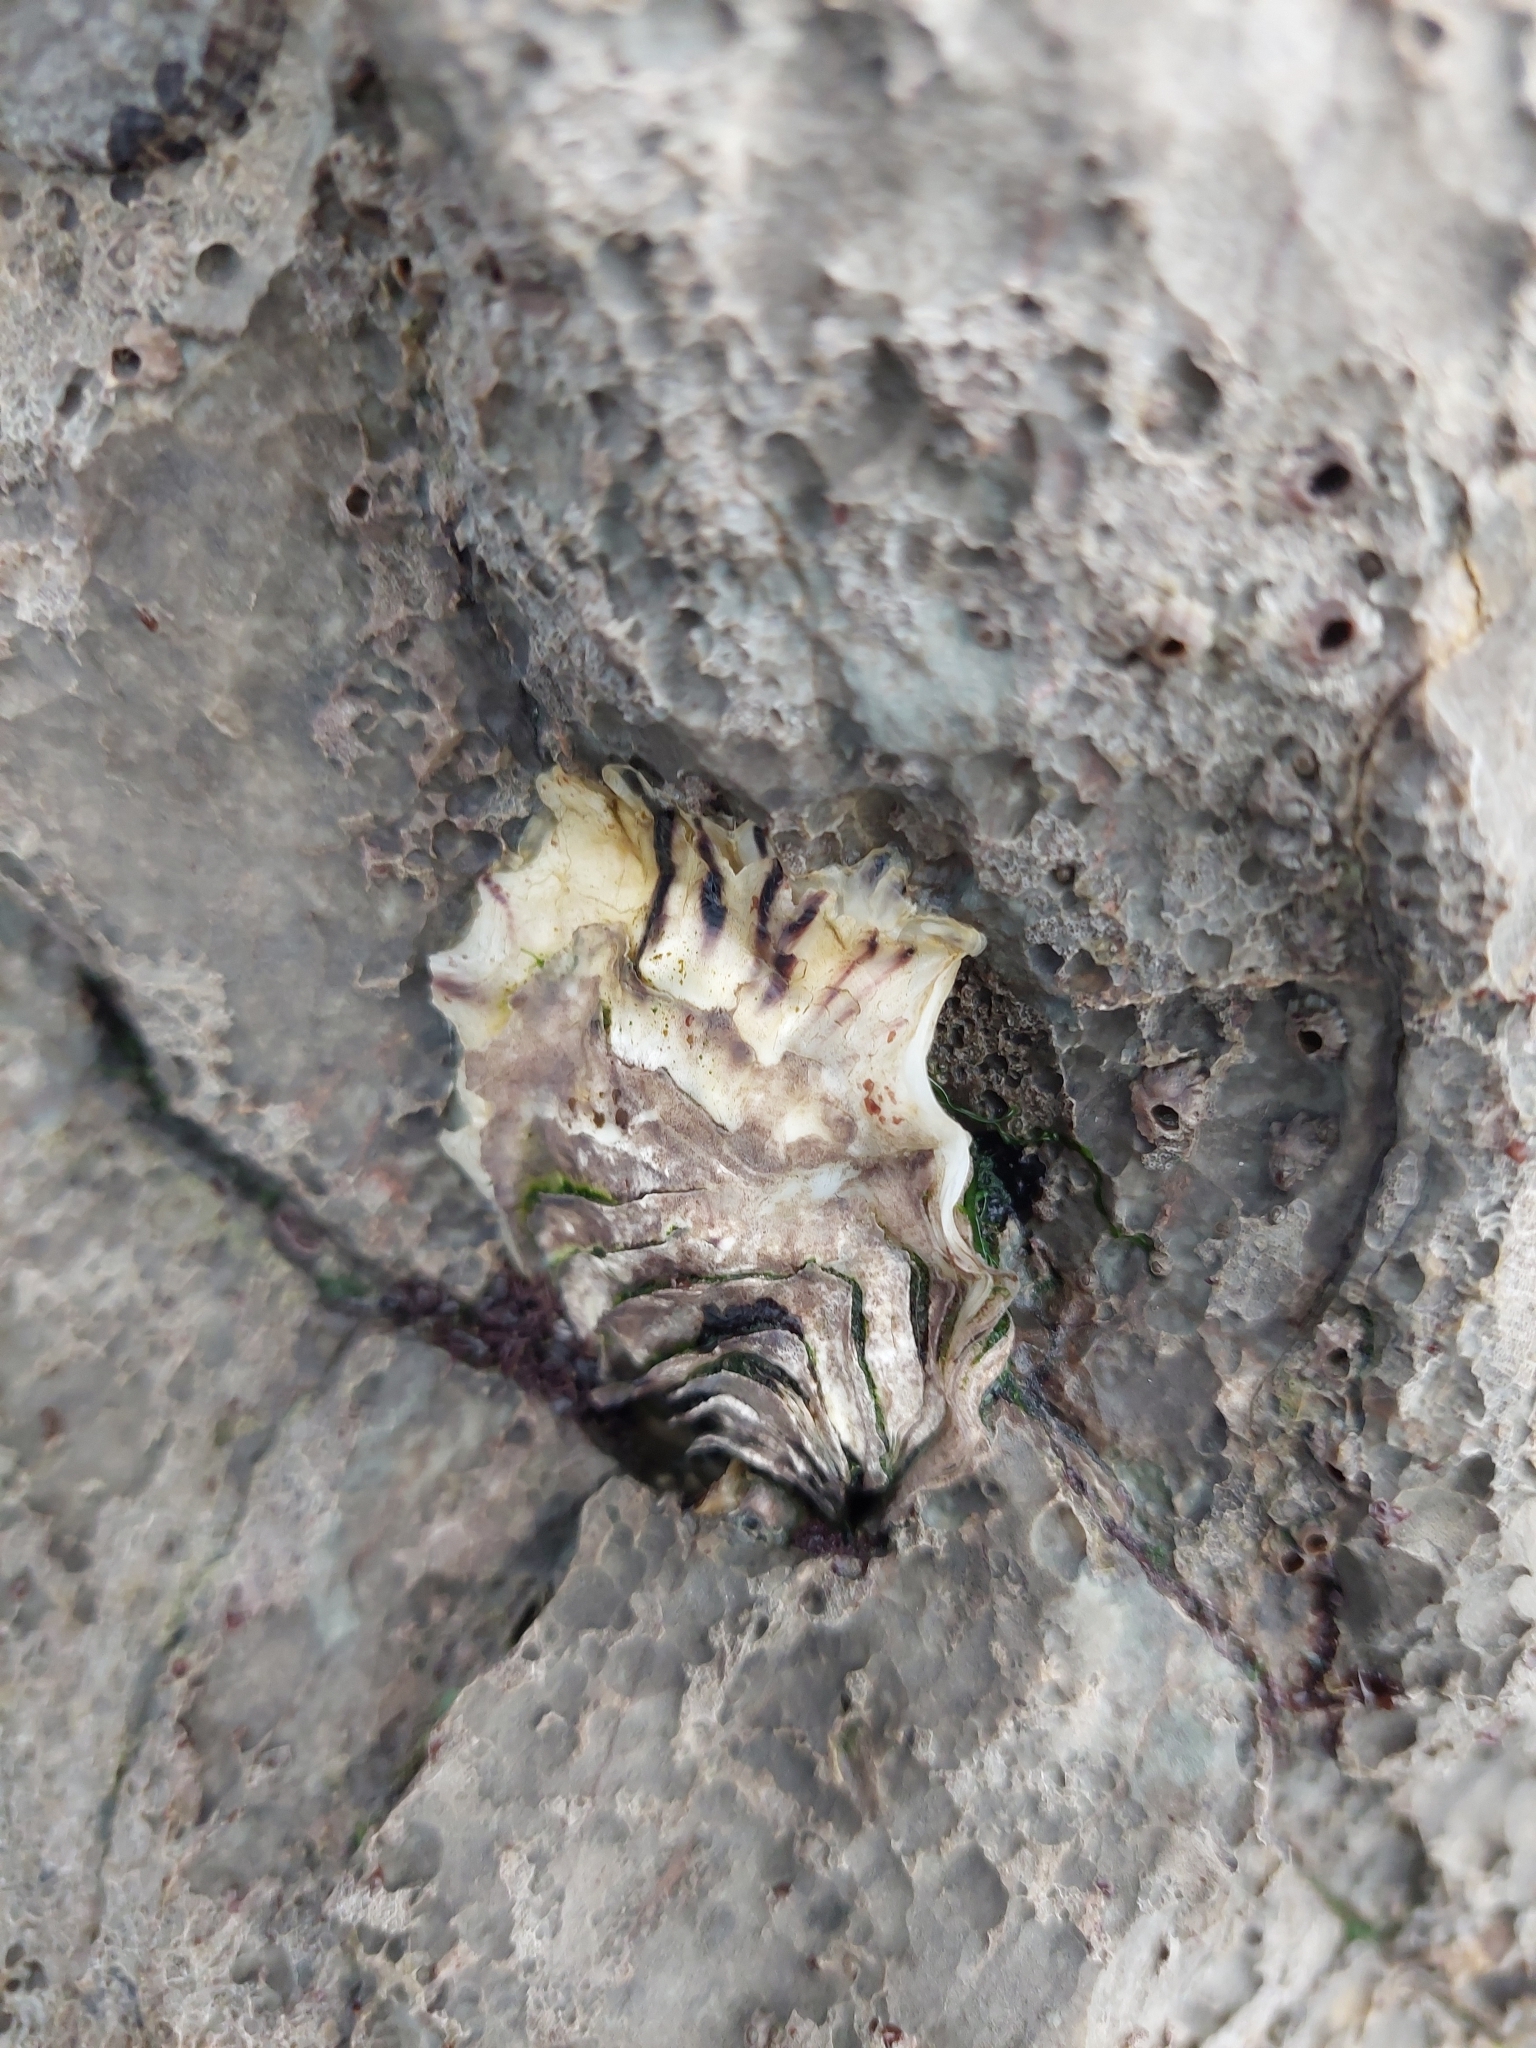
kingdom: Animalia
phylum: Mollusca
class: Bivalvia
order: Ostreida
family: Ostreidae
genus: Magallana
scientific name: Magallana gigas
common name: Pacific oyster
